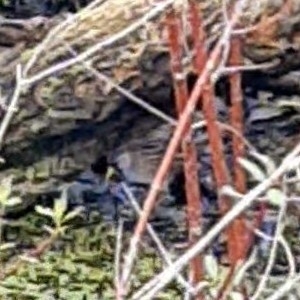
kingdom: Animalia
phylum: Chordata
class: Aves
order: Gruiformes
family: Rallidae
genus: Porzana
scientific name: Porzana carolina
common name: Sora
